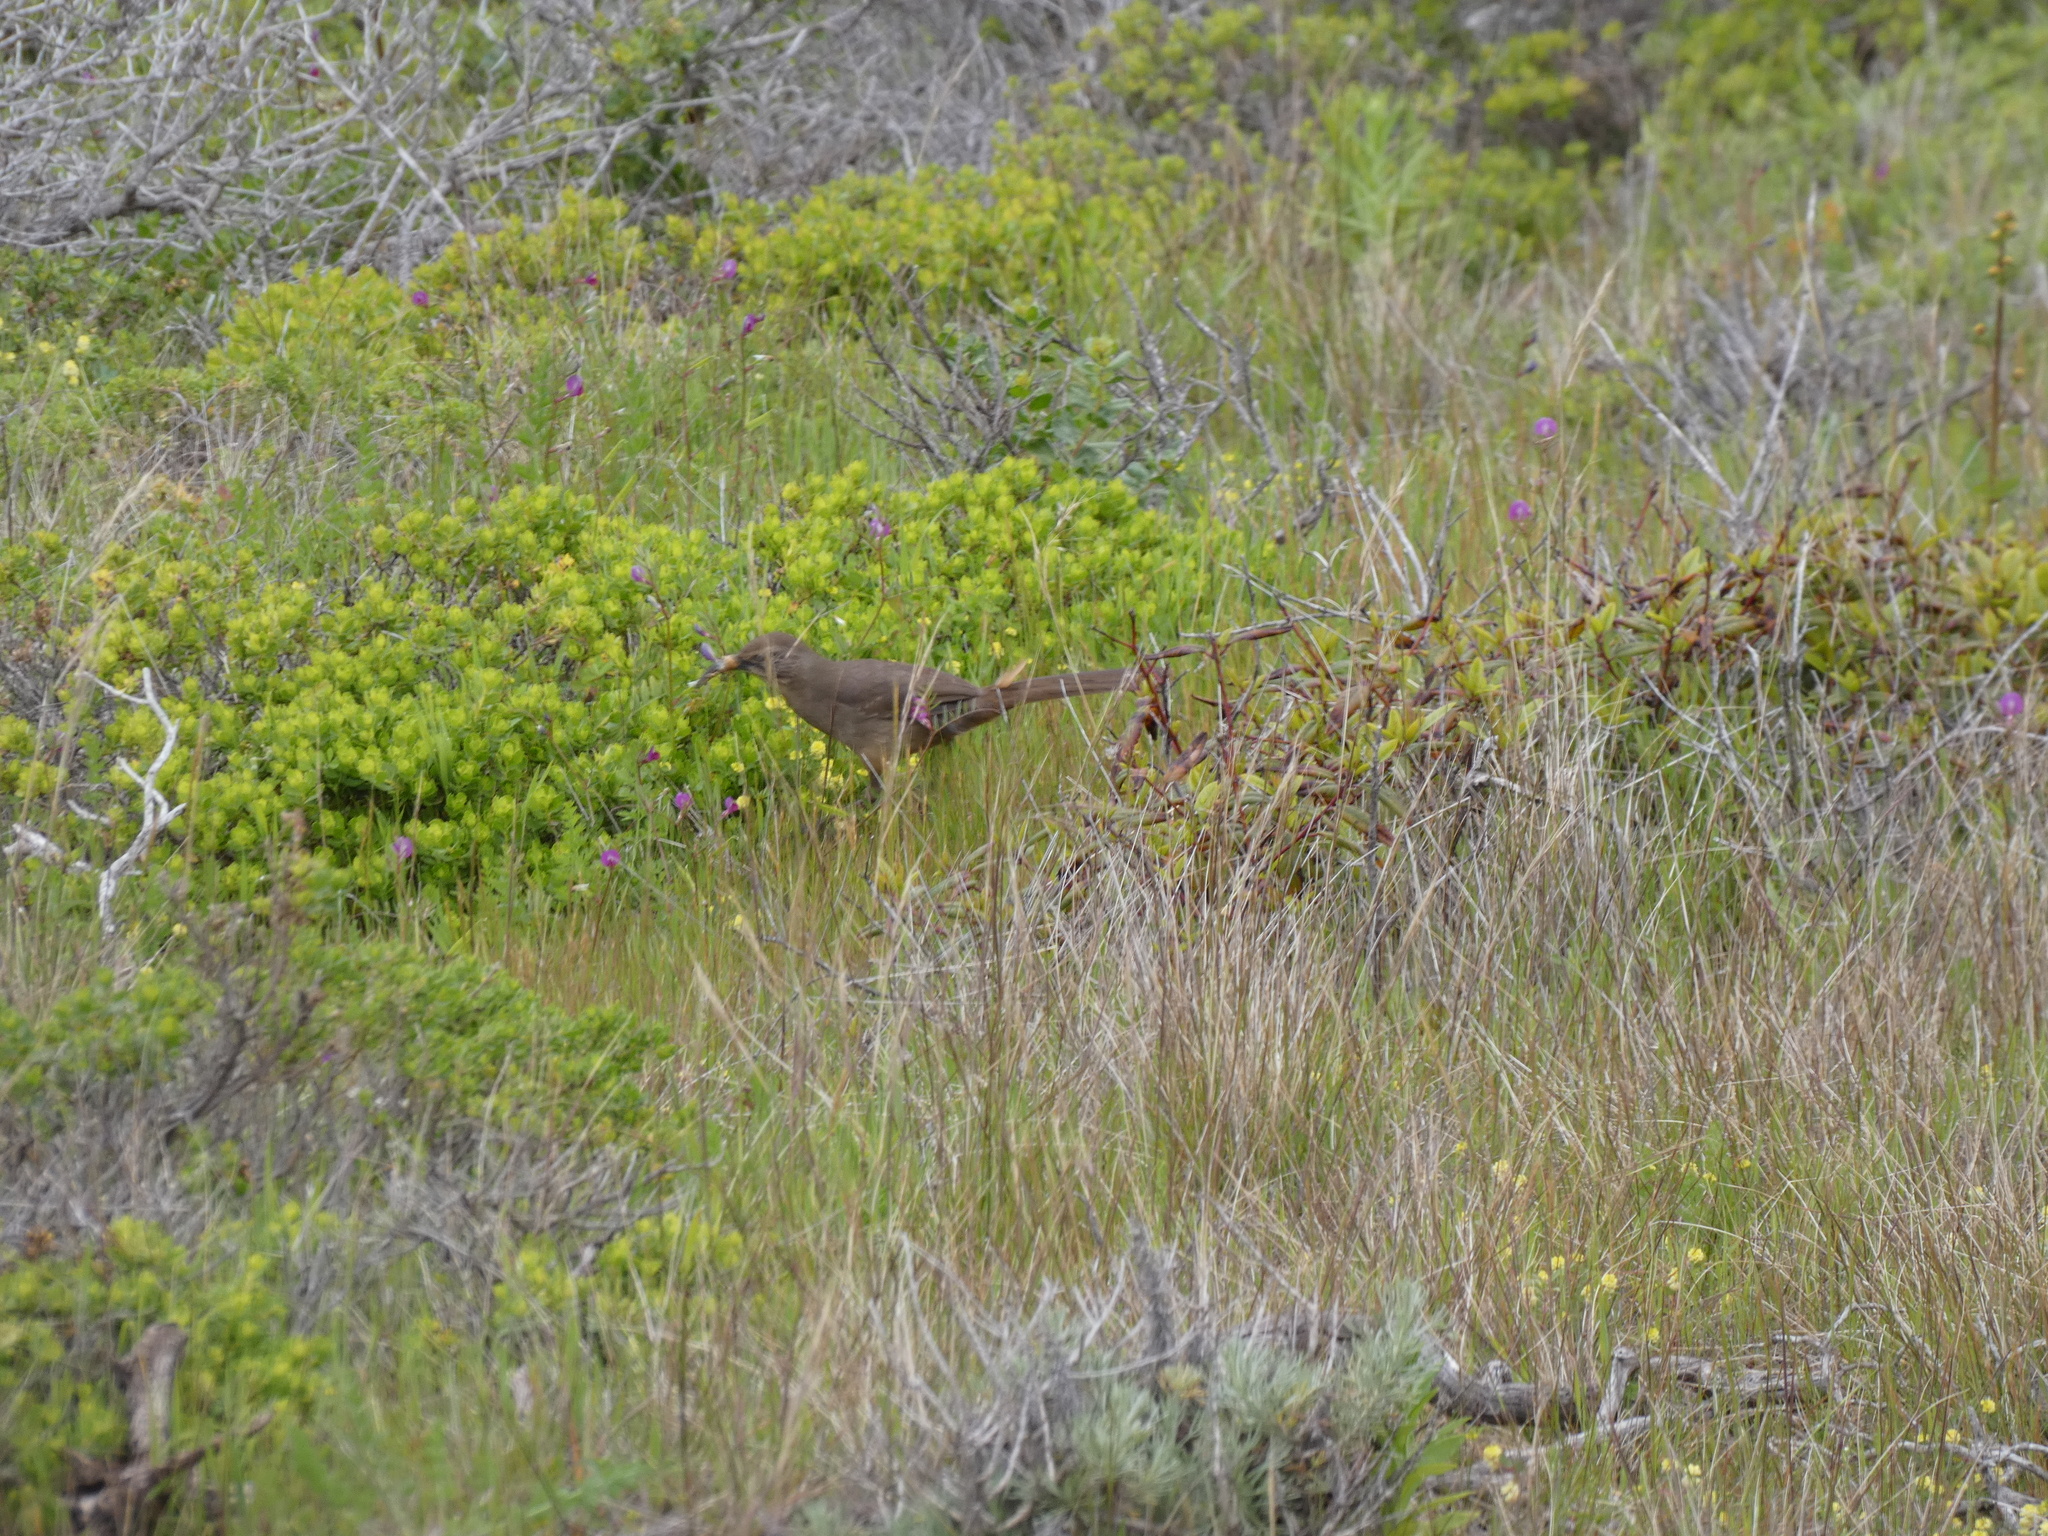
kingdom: Animalia
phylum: Chordata
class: Aves
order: Passeriformes
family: Mimidae
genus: Toxostoma
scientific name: Toxostoma redivivum
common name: California thrasher
